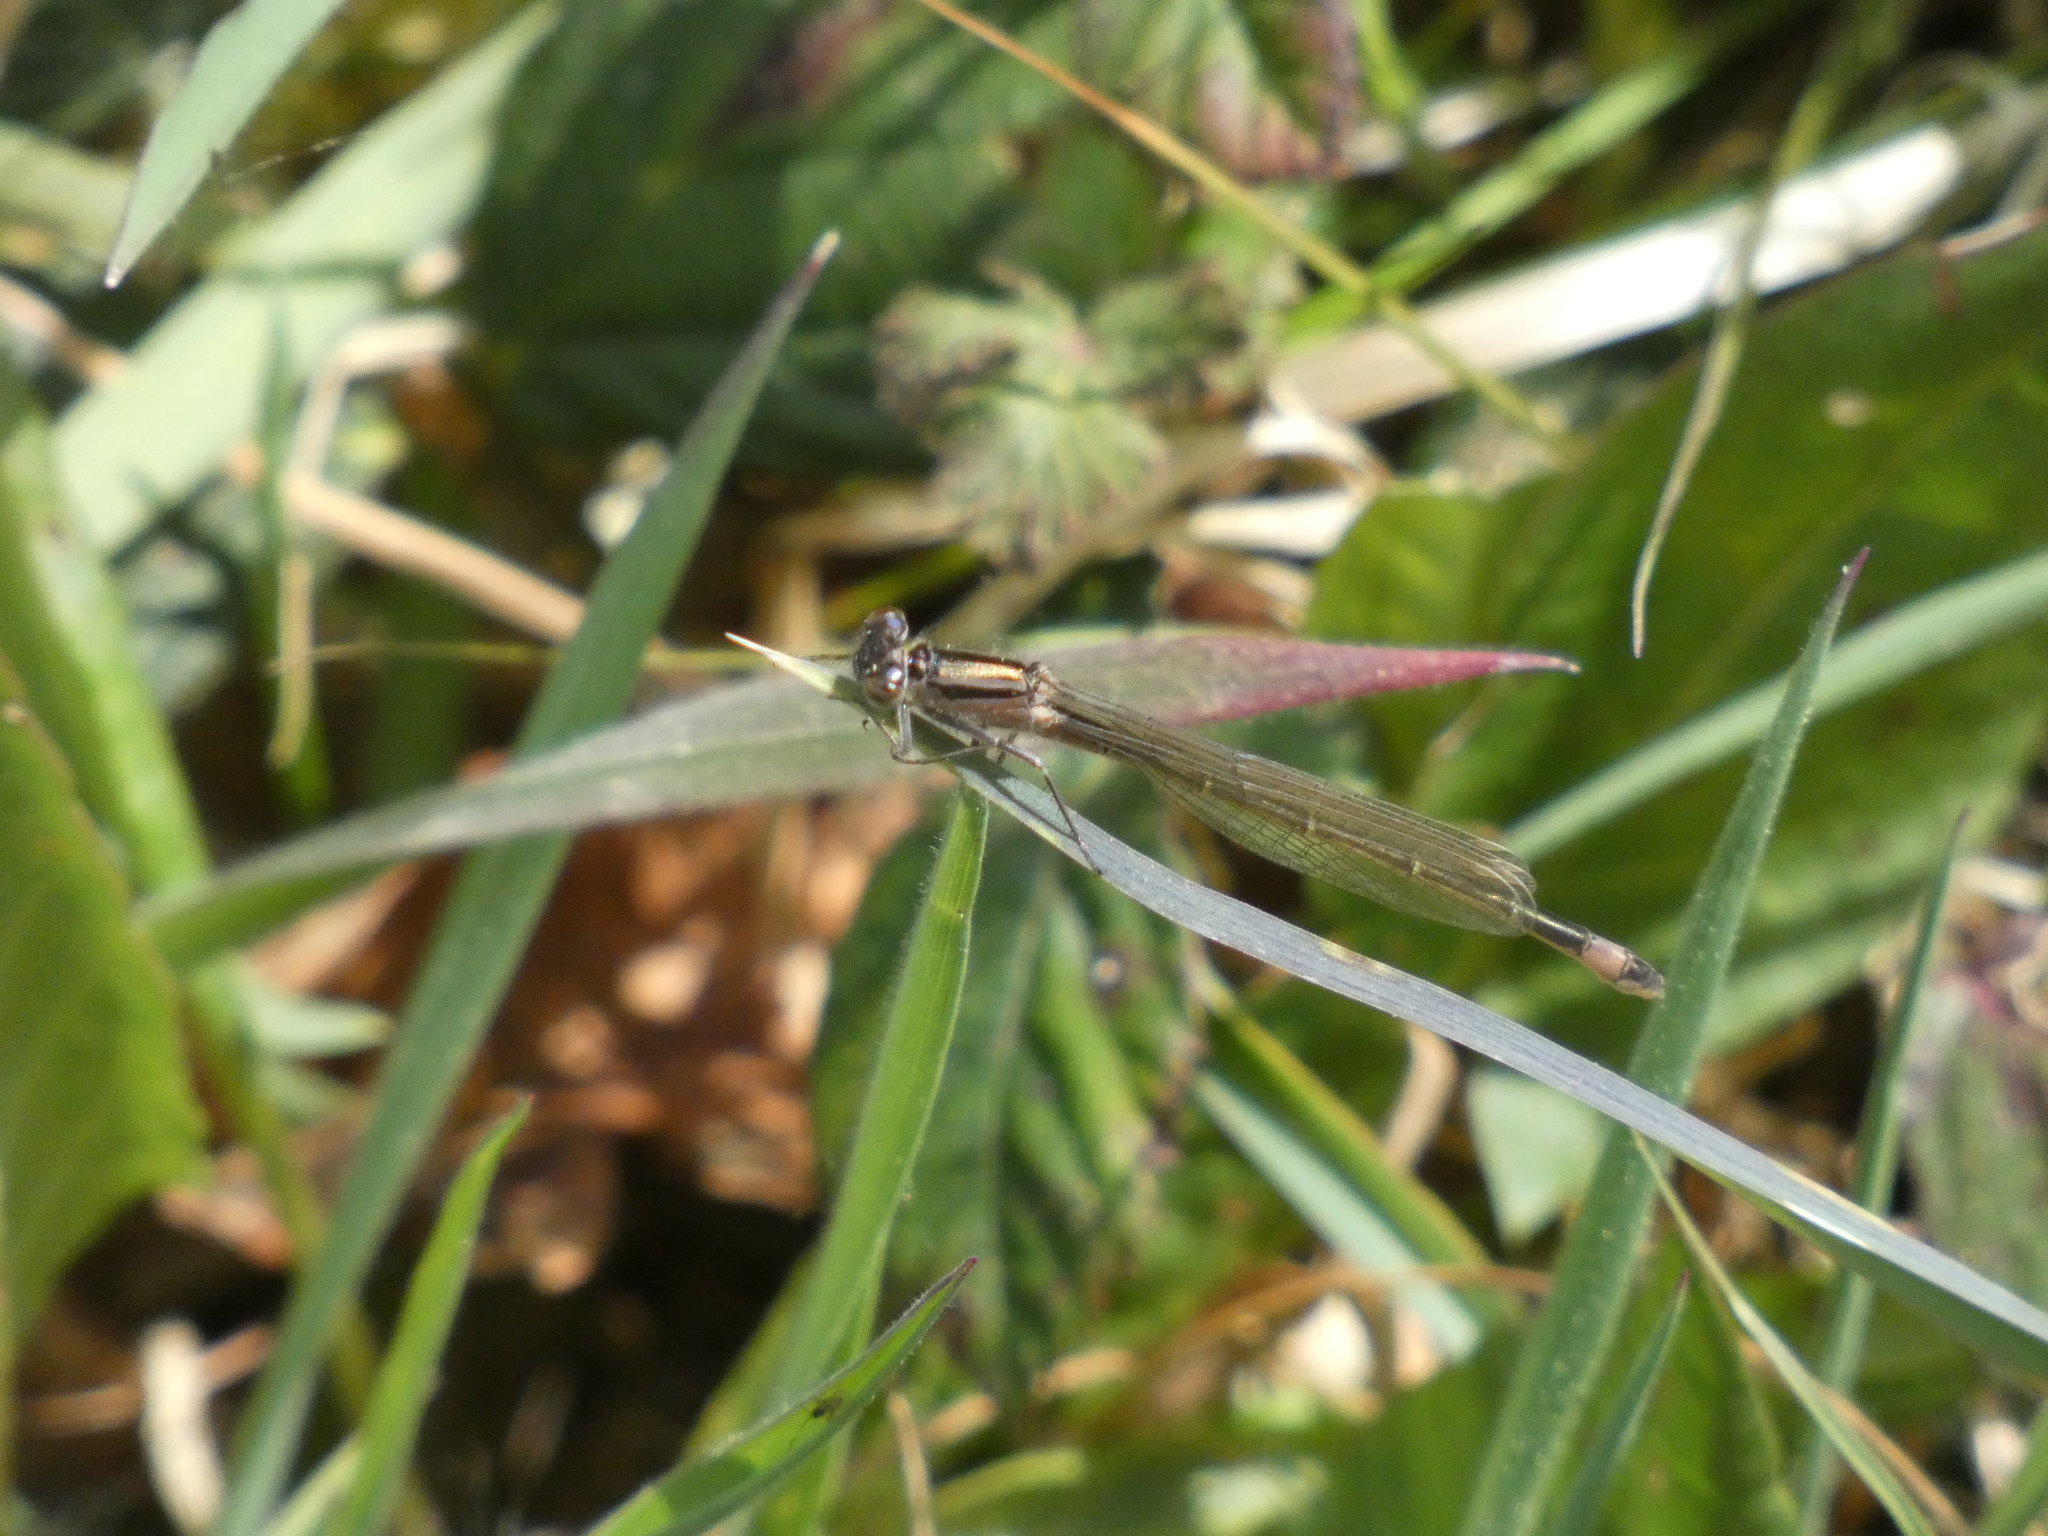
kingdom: Animalia
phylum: Arthropoda
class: Insecta
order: Odonata
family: Coenagrionidae
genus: Ischnura
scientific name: Ischnura elegans
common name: Blue-tailed damselfly
